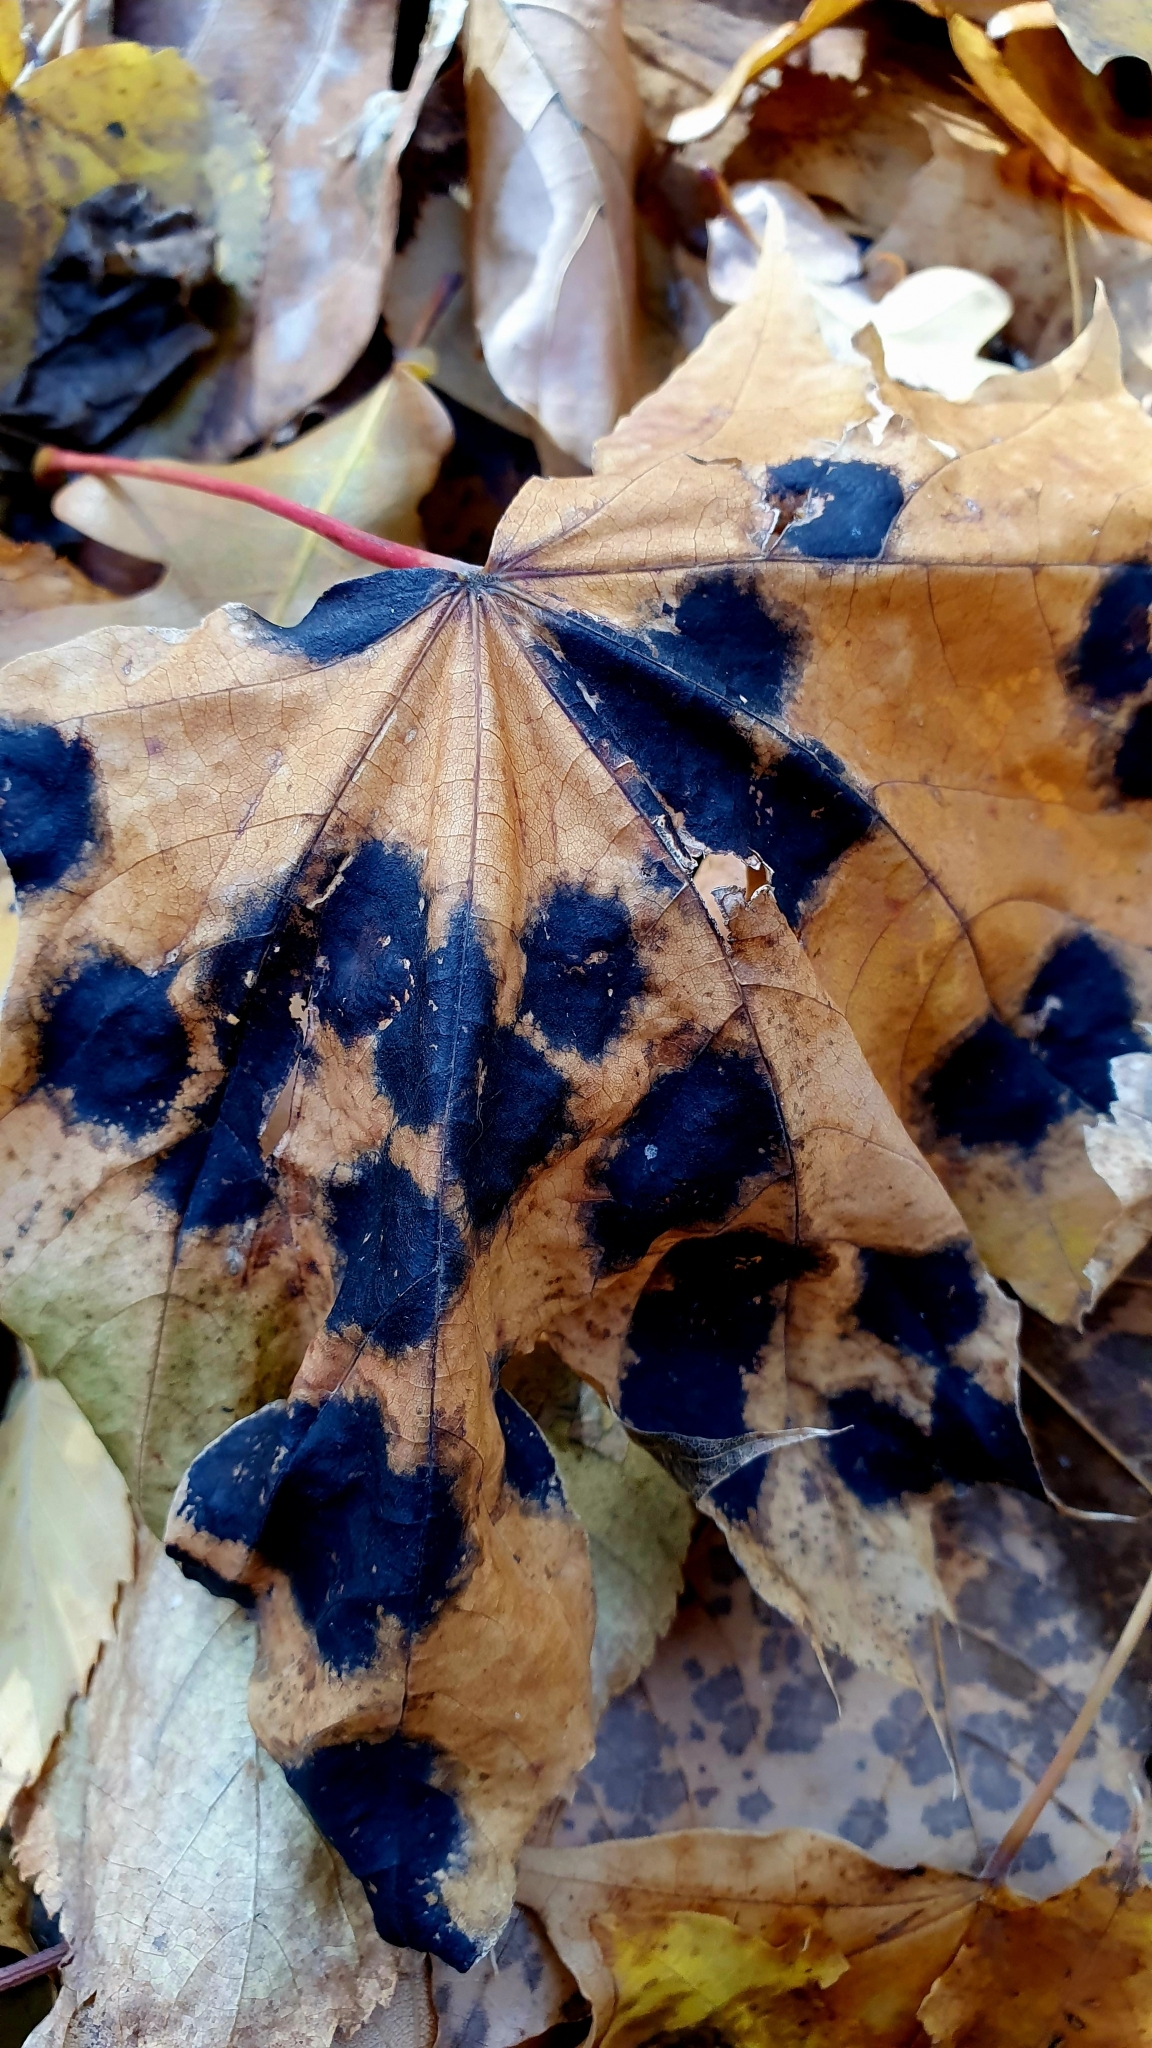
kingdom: Fungi
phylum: Ascomycota
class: Leotiomycetes
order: Rhytismatales
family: Rhytismataceae
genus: Rhytisma
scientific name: Rhytisma acerinum
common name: European tar spot
